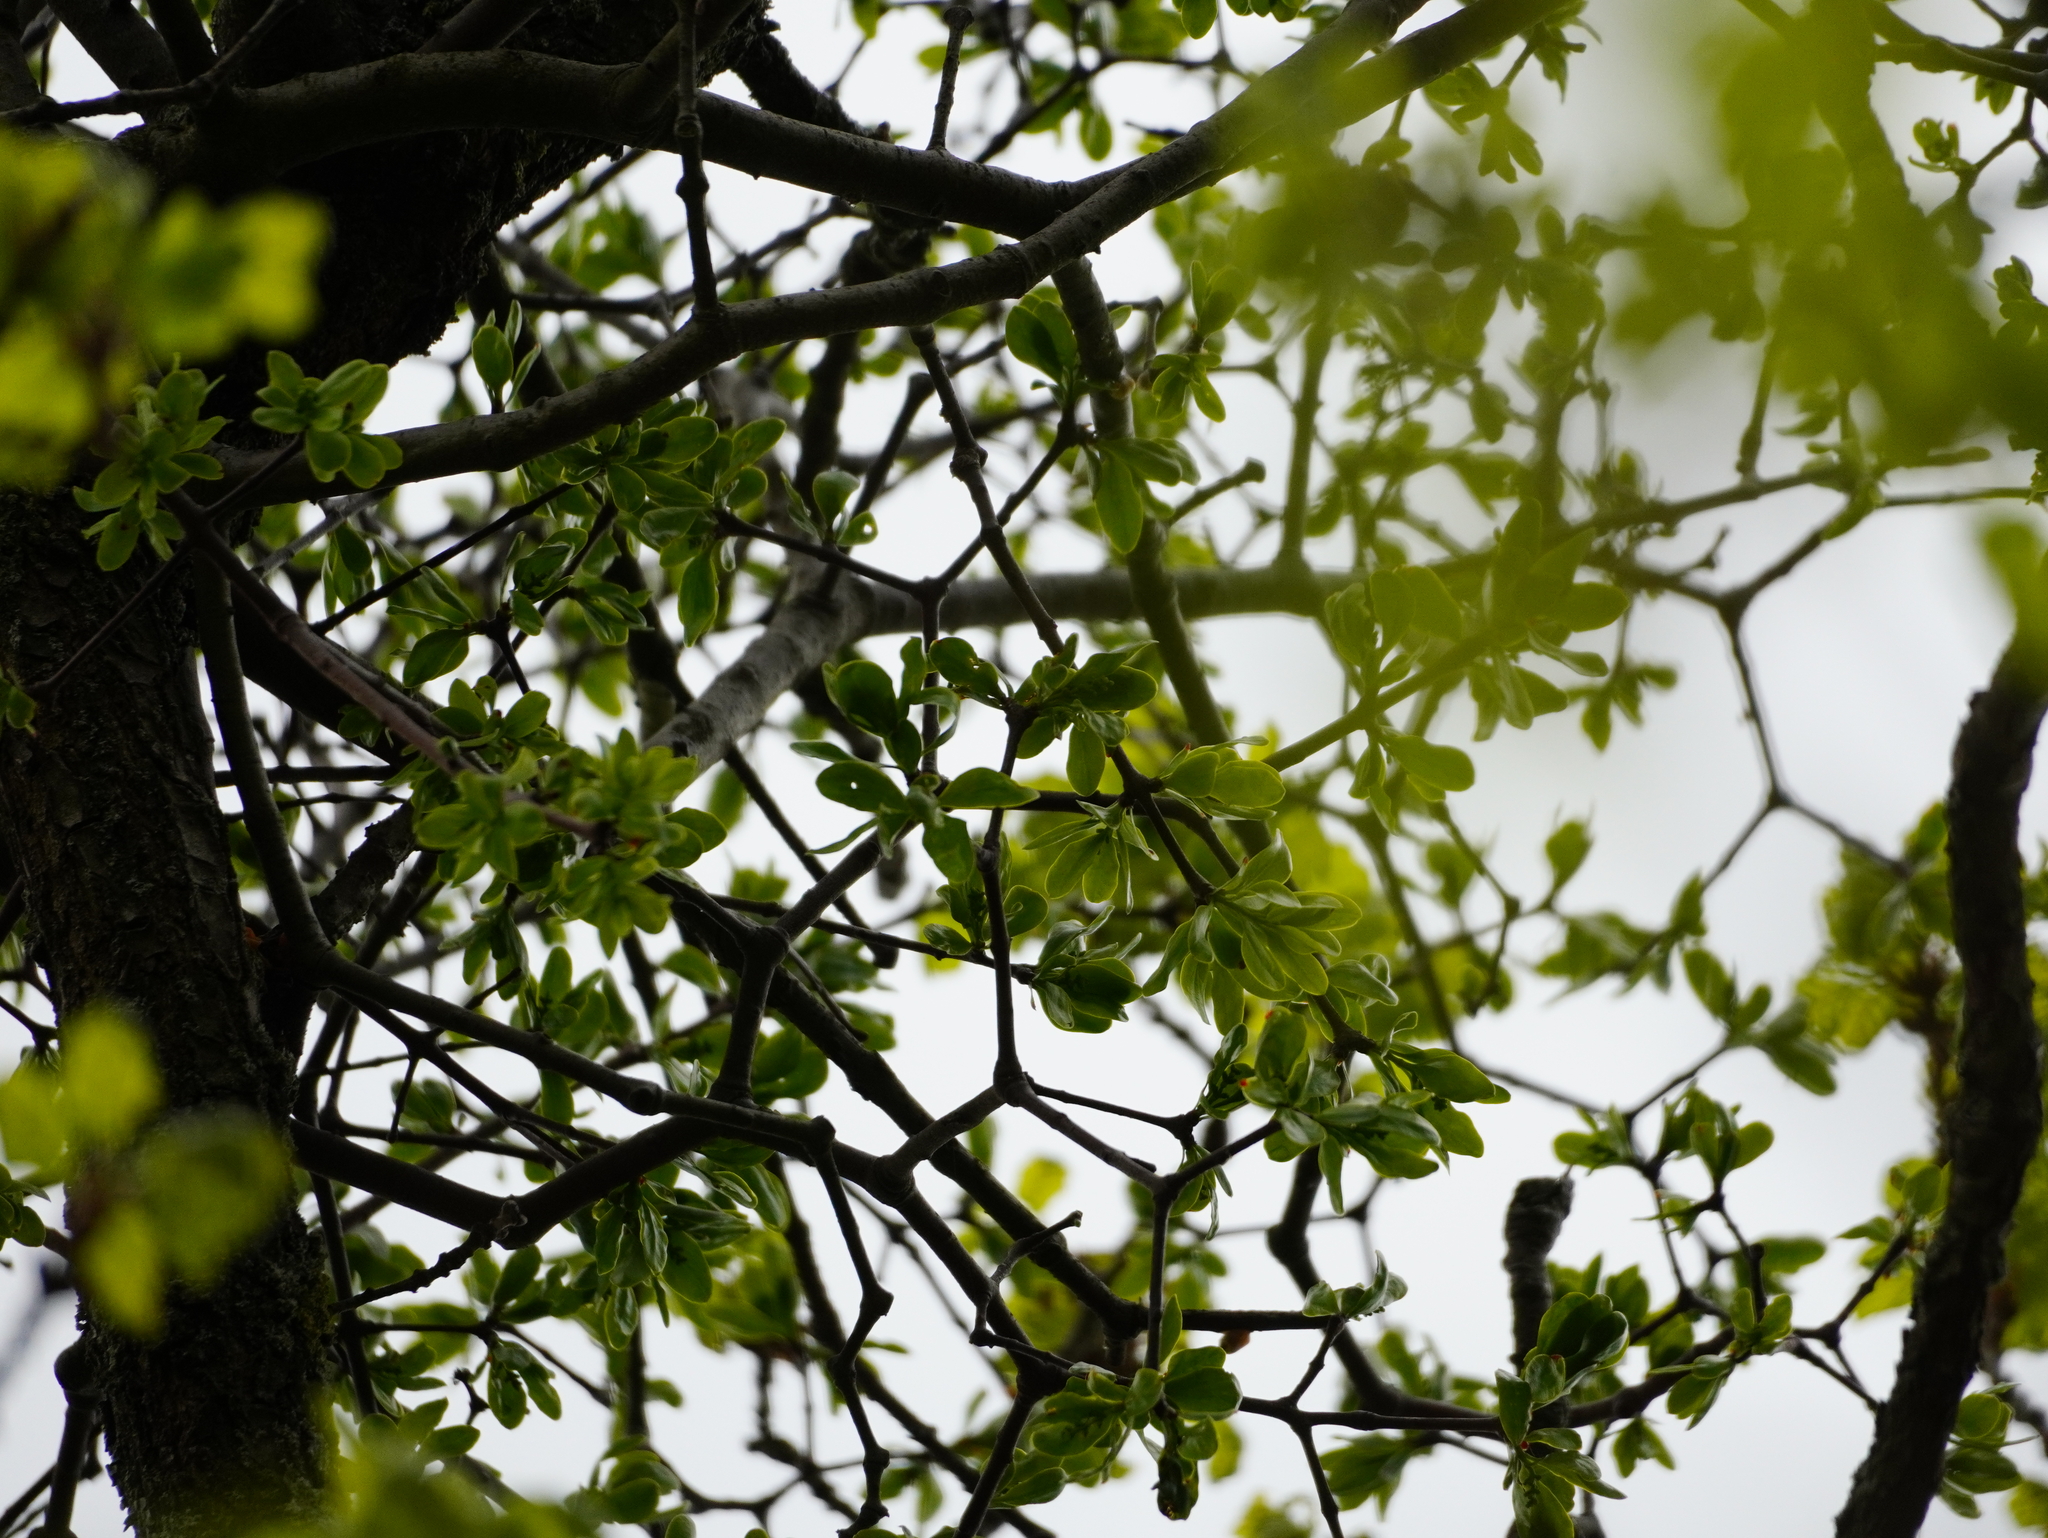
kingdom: Plantae
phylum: Tracheophyta
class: Magnoliopsida
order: Santalales
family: Loranthaceae
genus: Loranthus
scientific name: Loranthus europaeus
